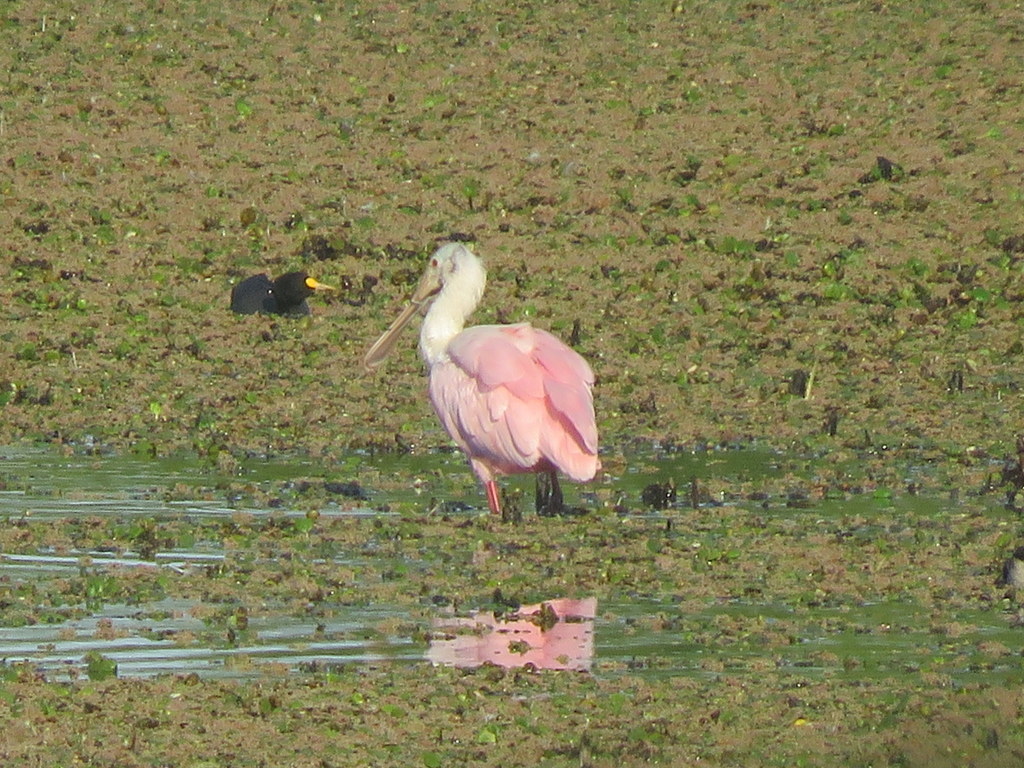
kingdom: Animalia
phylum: Chordata
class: Aves
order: Pelecaniformes
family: Threskiornithidae
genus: Platalea
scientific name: Platalea ajaja
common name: Roseate spoonbill
